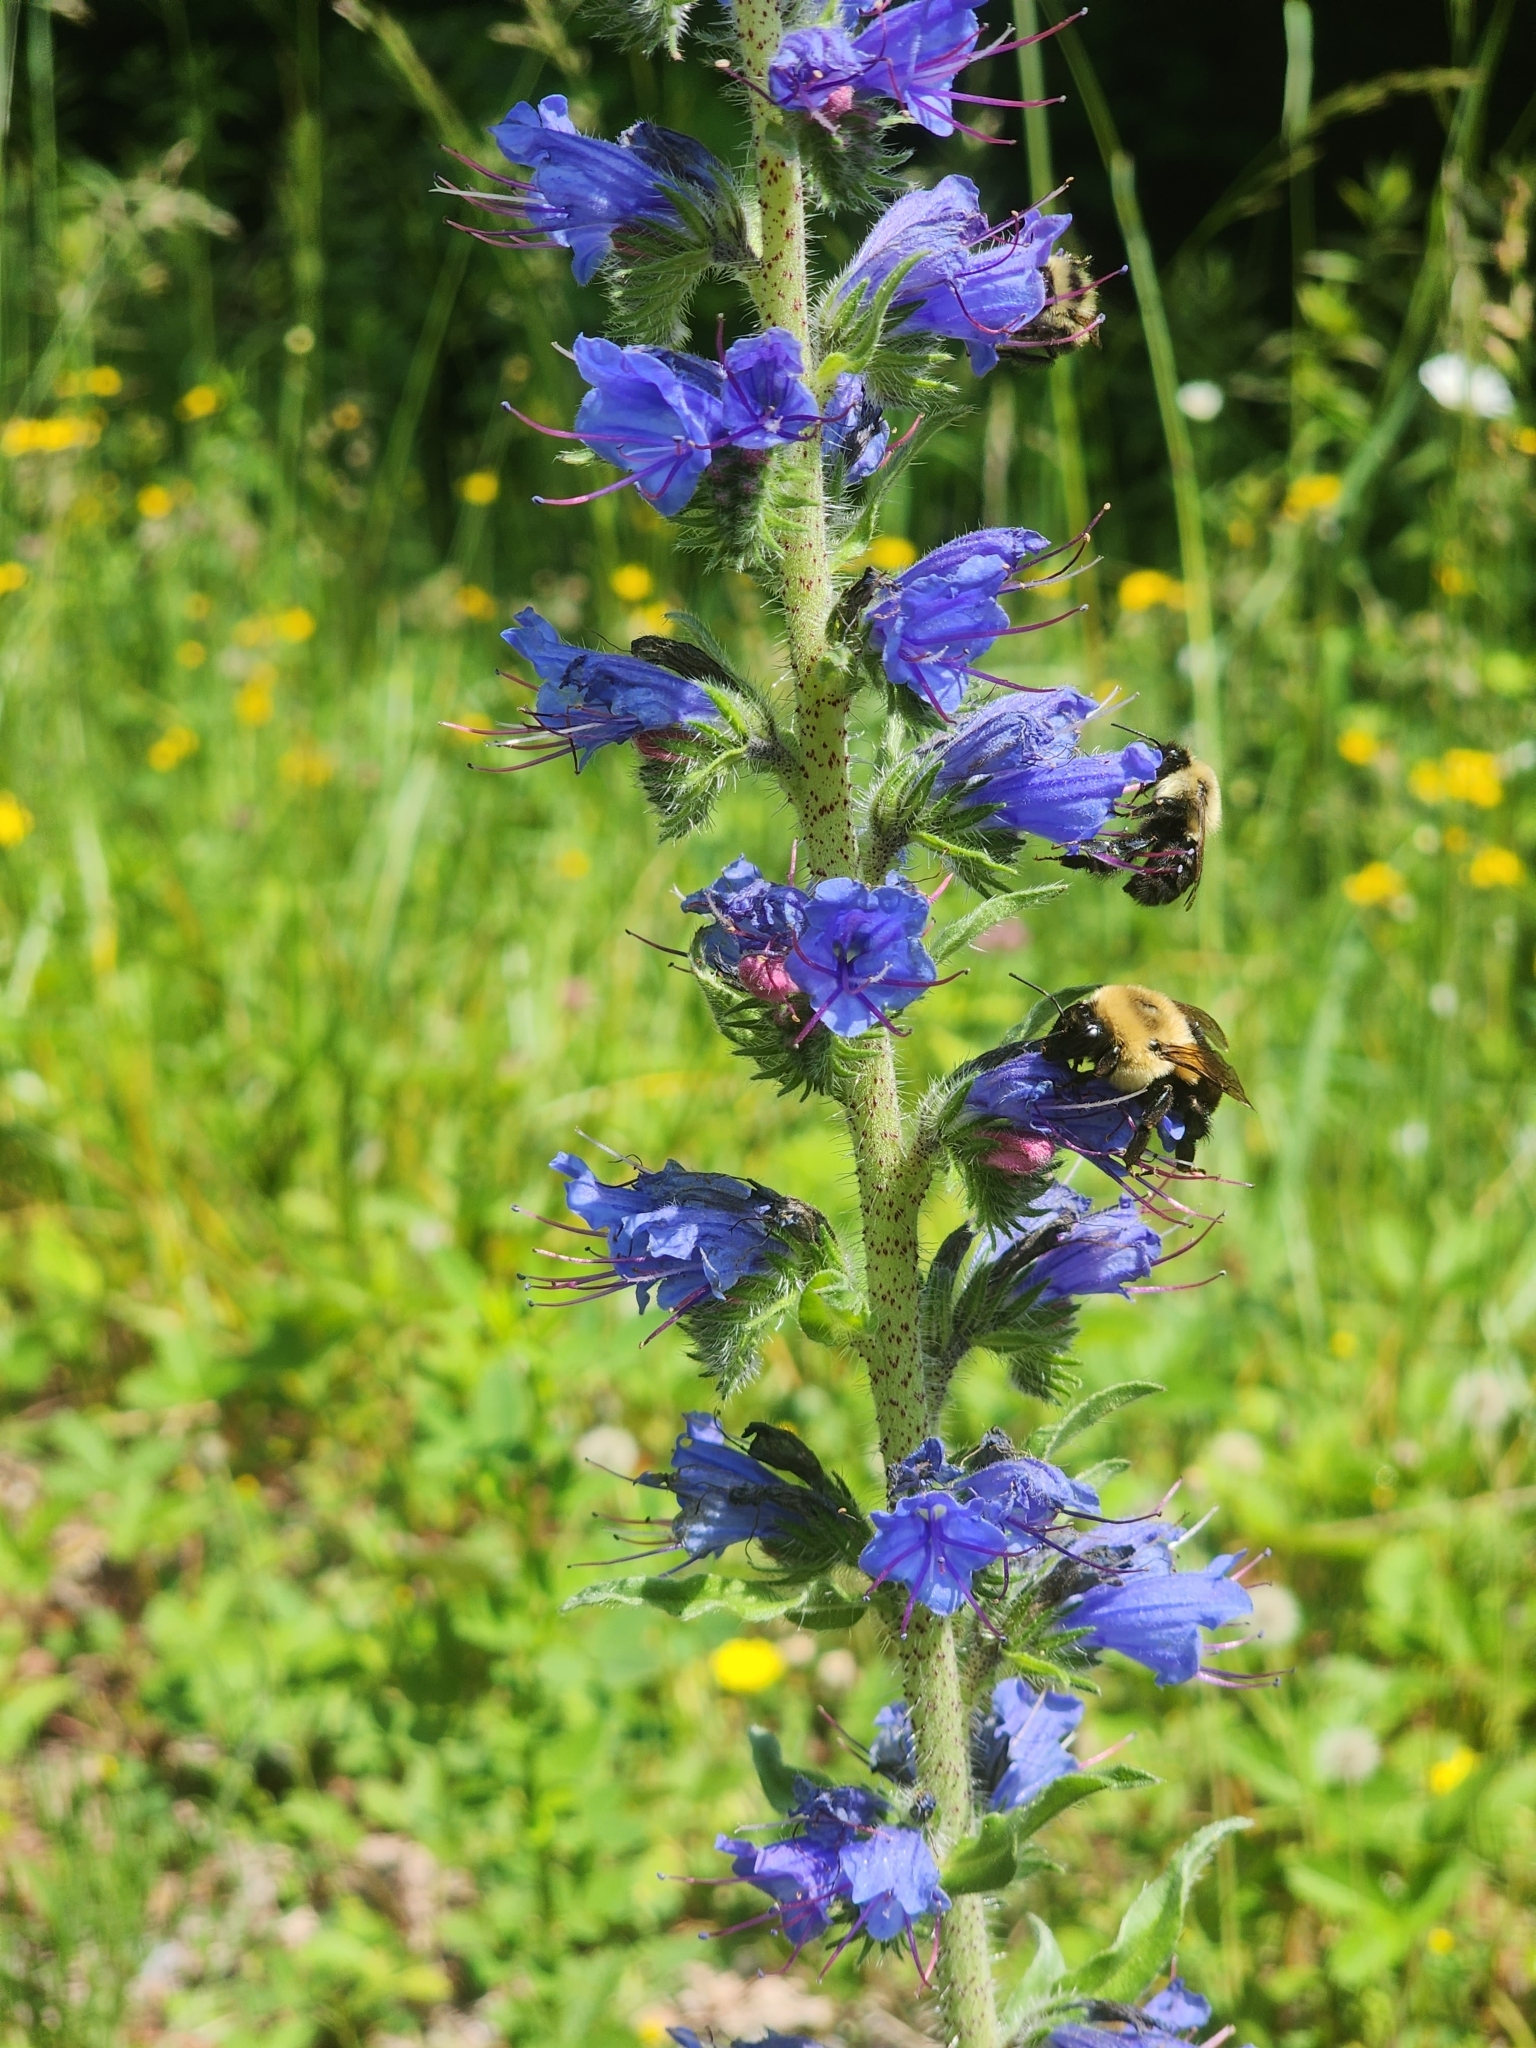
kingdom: Plantae
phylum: Tracheophyta
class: Magnoliopsida
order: Boraginales
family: Boraginaceae
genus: Echium
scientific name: Echium vulgare
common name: Common viper's bugloss
